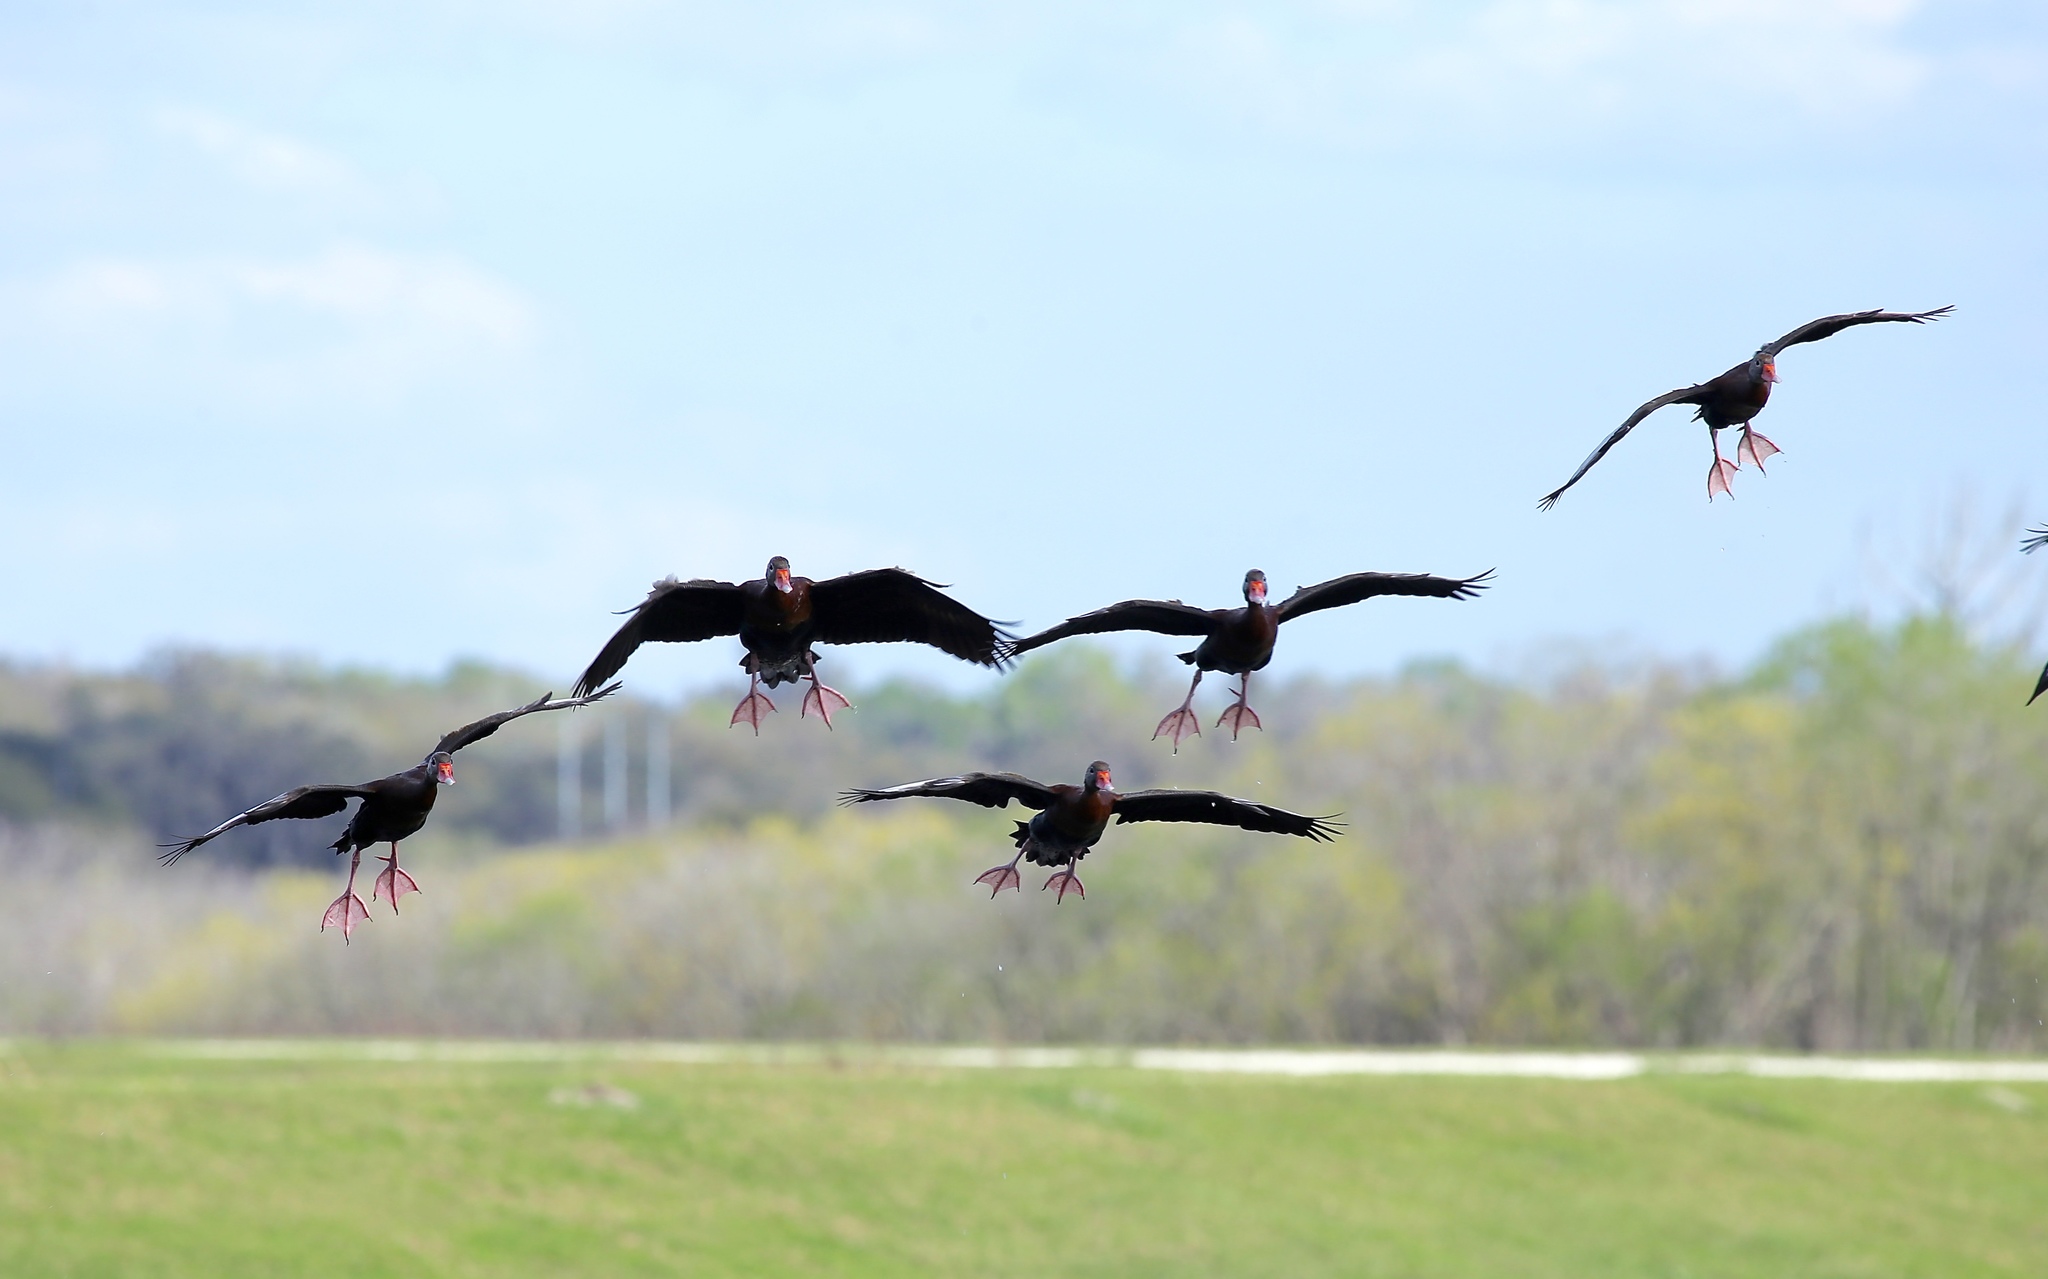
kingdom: Animalia
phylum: Chordata
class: Aves
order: Anseriformes
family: Anatidae
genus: Dendrocygna
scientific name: Dendrocygna autumnalis
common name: Black-bellied whistling duck
